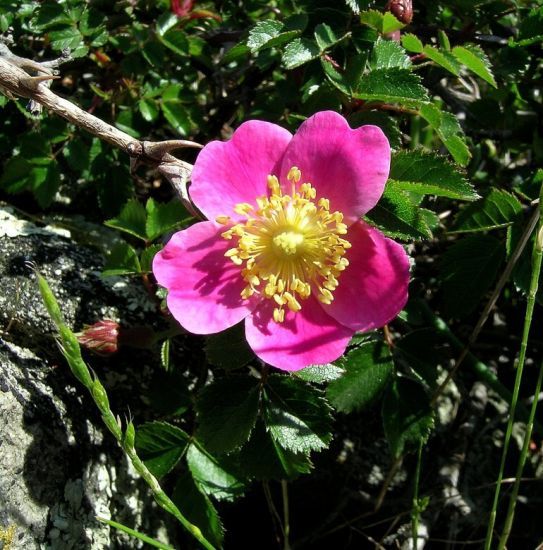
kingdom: Plantae
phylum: Tracheophyta
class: Magnoliopsida
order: Rosales
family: Rosaceae
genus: Rosa
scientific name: Rosa serafinii
